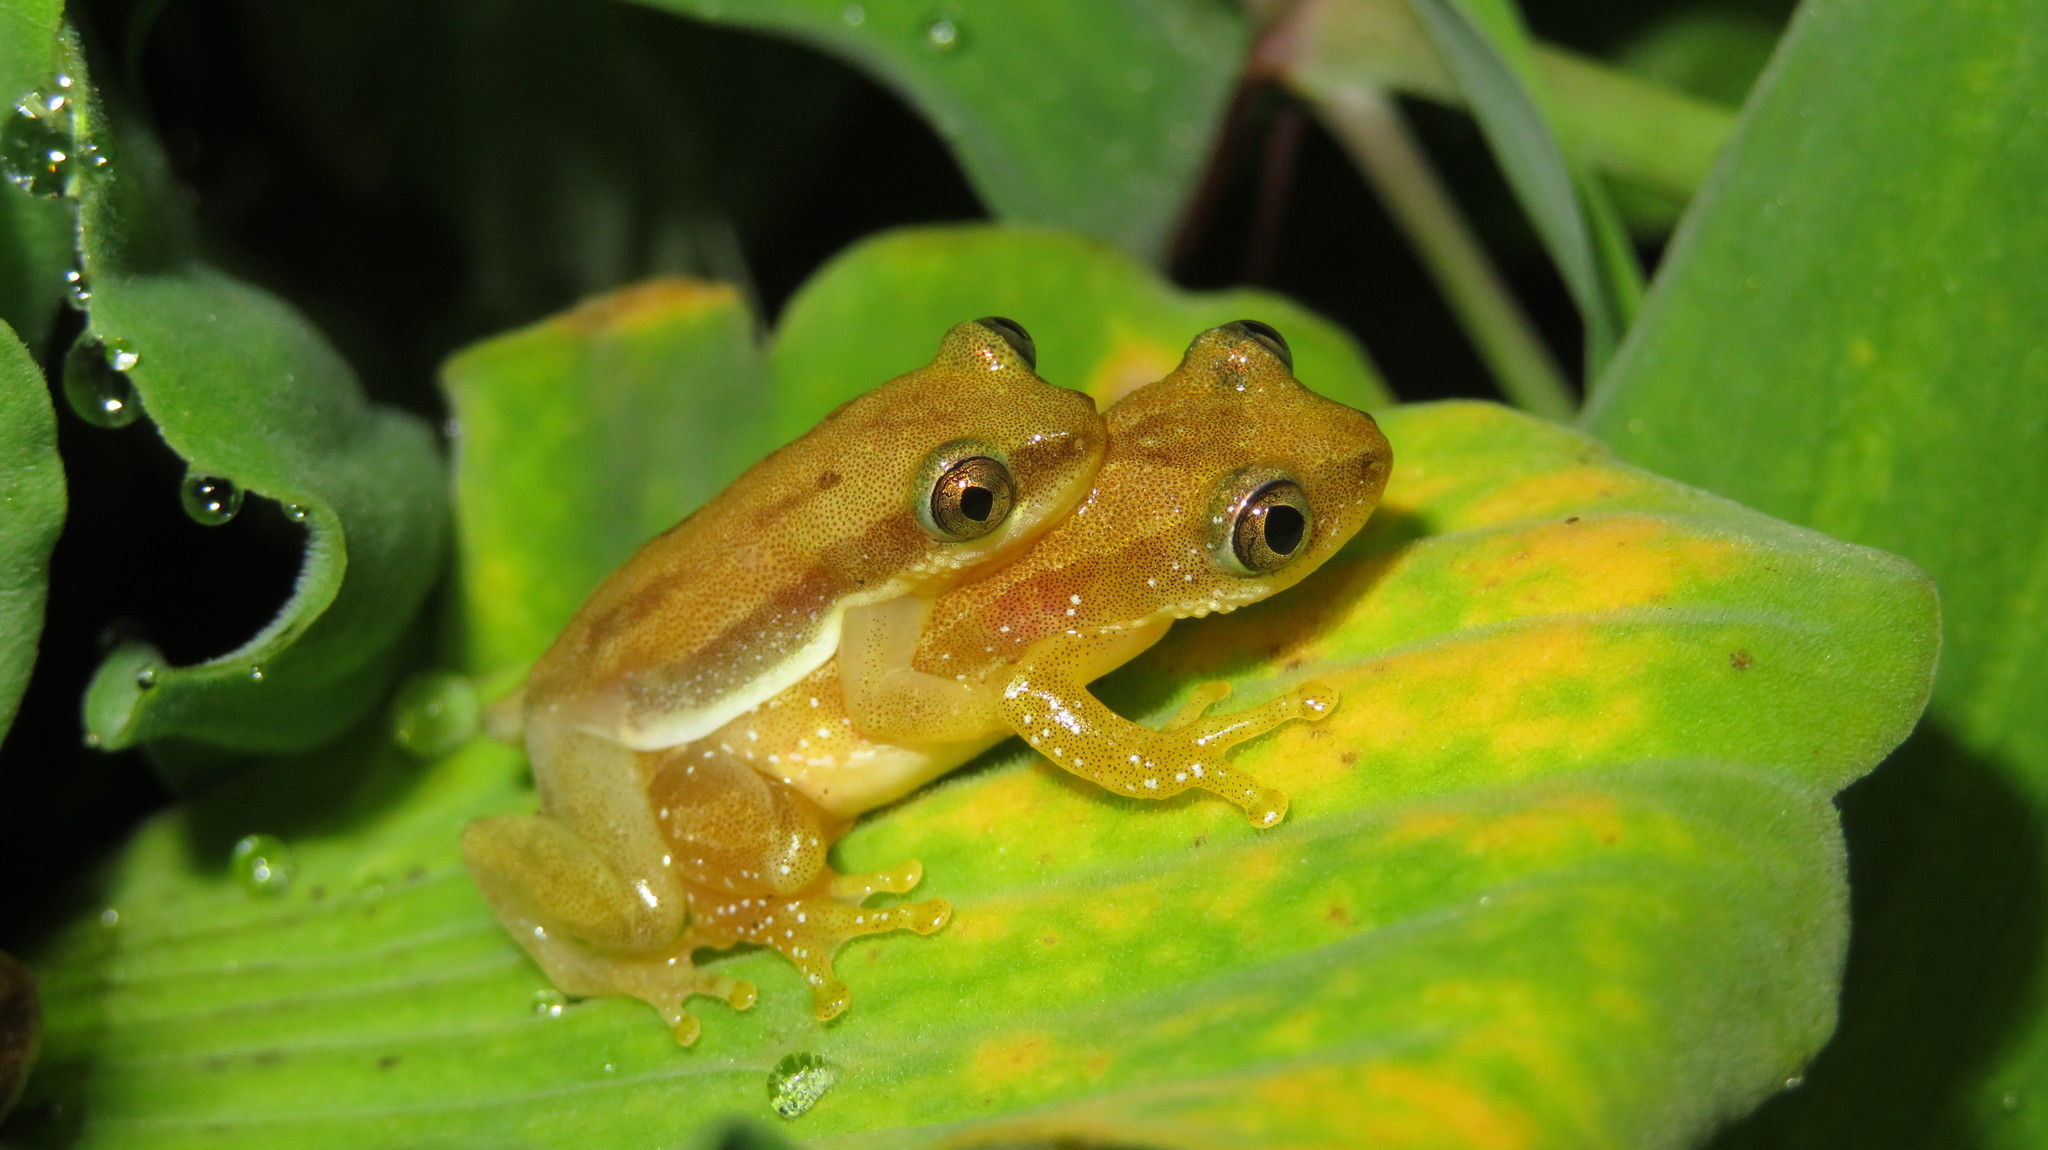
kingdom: Animalia
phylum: Chordata
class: Amphibia
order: Anura
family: Hyperoliidae
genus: Afrixalus
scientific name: Afrixalus delicatus
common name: Delicate leaf-folding frog
